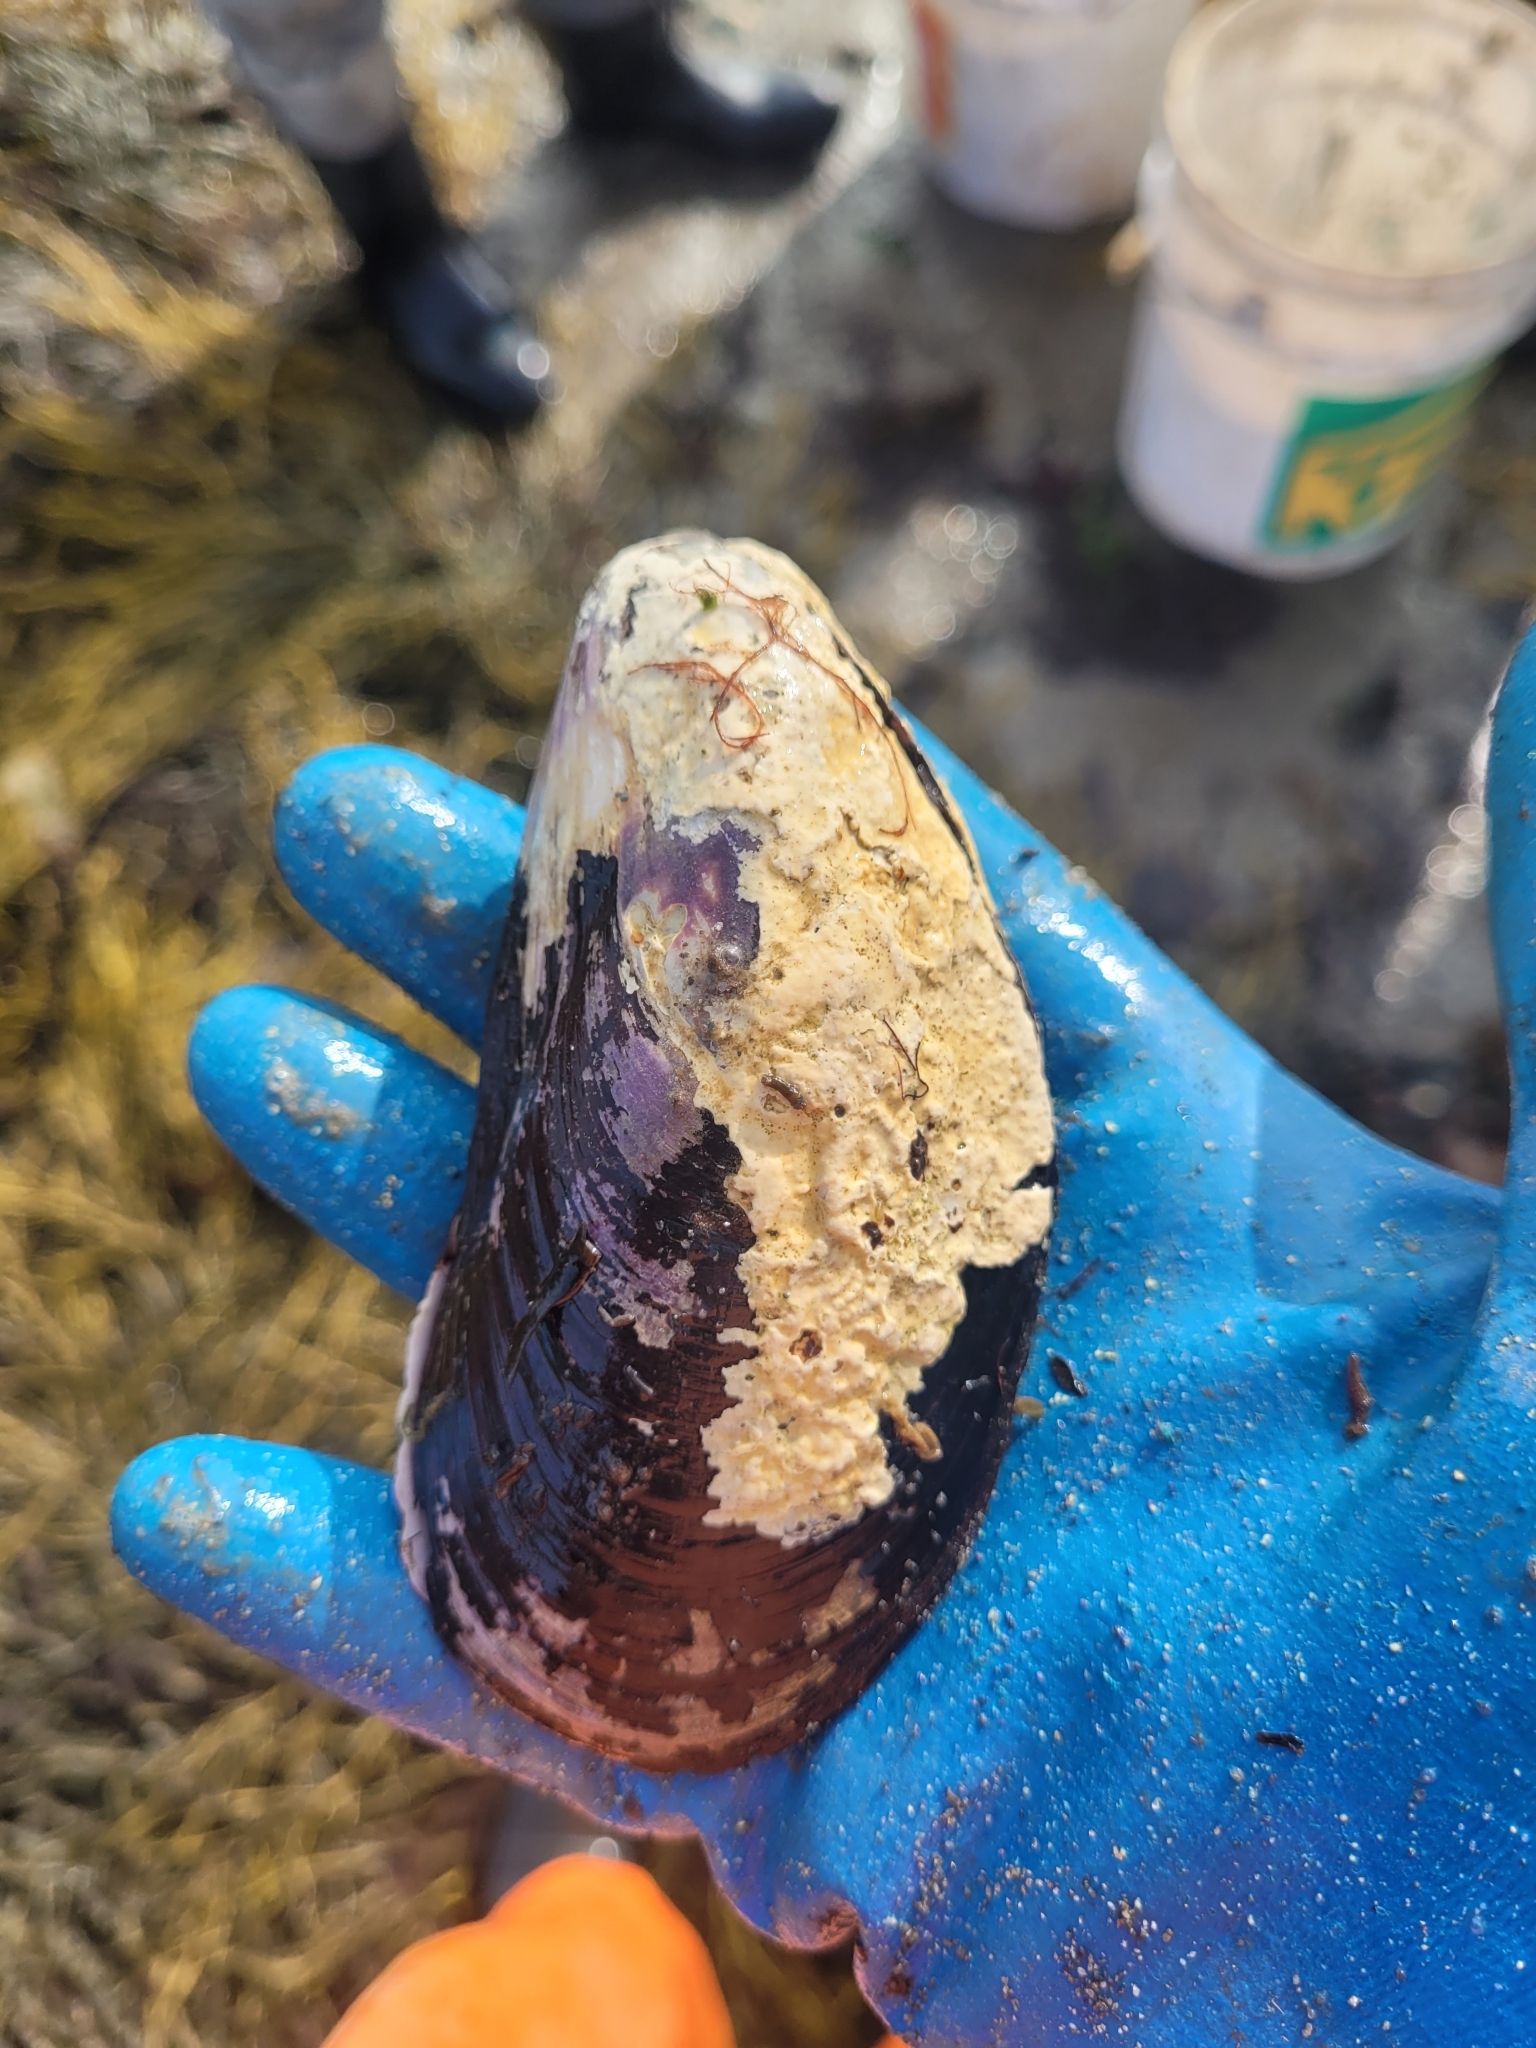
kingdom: Animalia
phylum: Mollusca
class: Bivalvia
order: Mytilida
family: Mytilidae
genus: Modiolus
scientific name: Modiolus modiolus
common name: Horse-mussel
